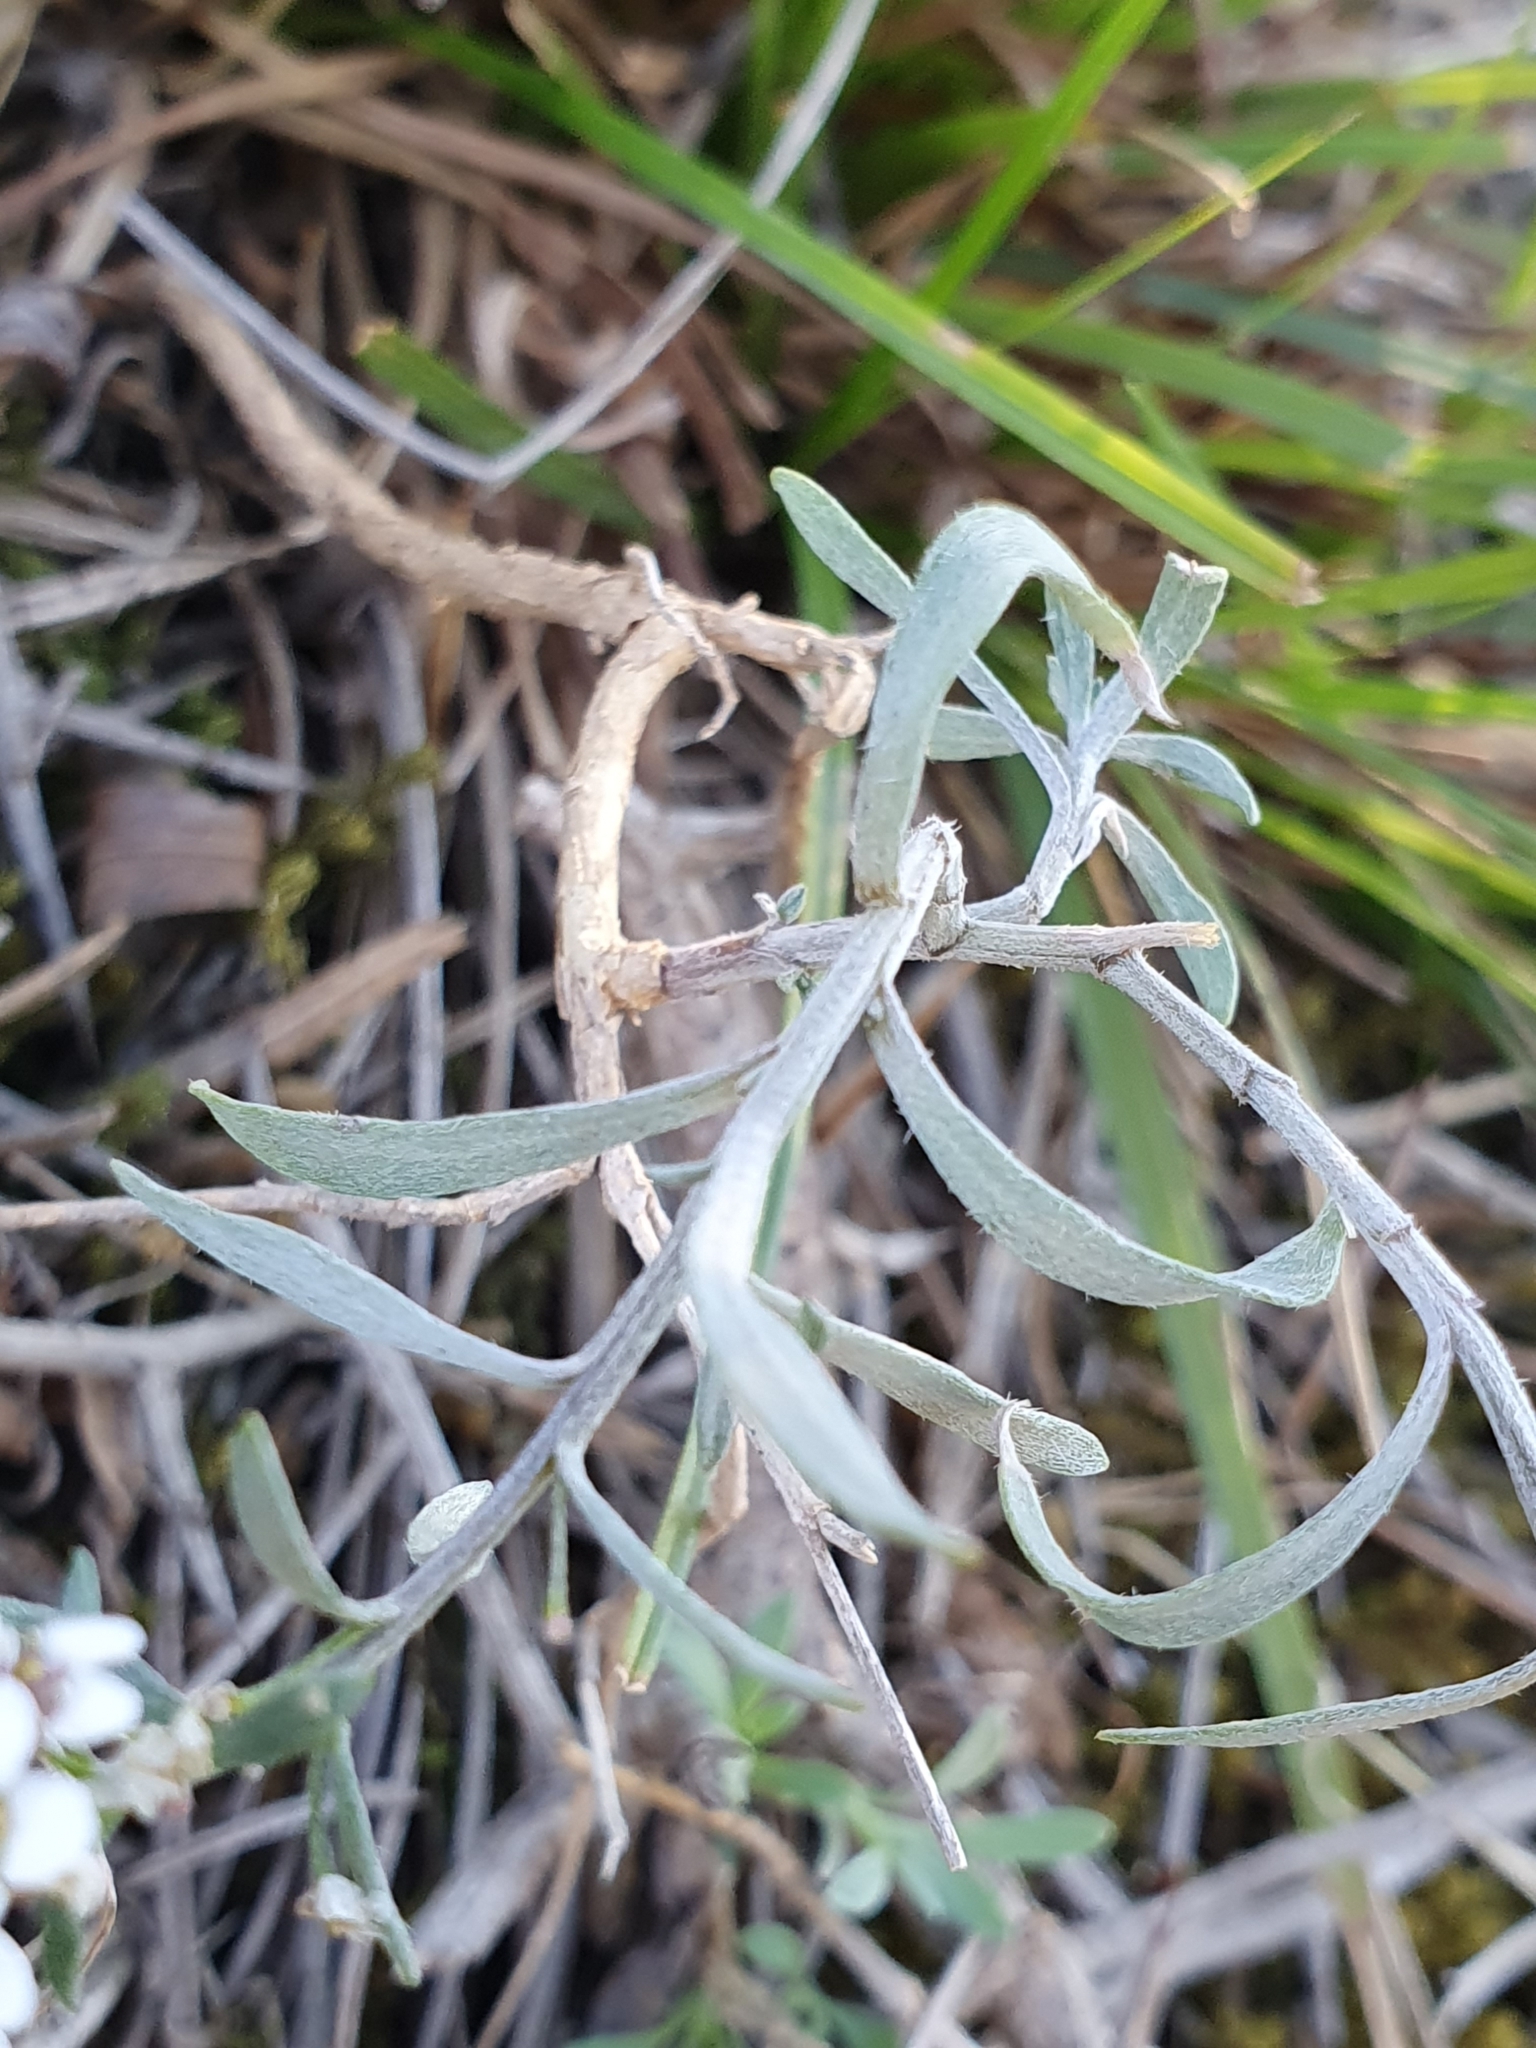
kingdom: Plantae
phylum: Tracheophyta
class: Magnoliopsida
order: Brassicales
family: Brassicaceae
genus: Lobularia
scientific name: Lobularia maritima
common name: Sweet alison
